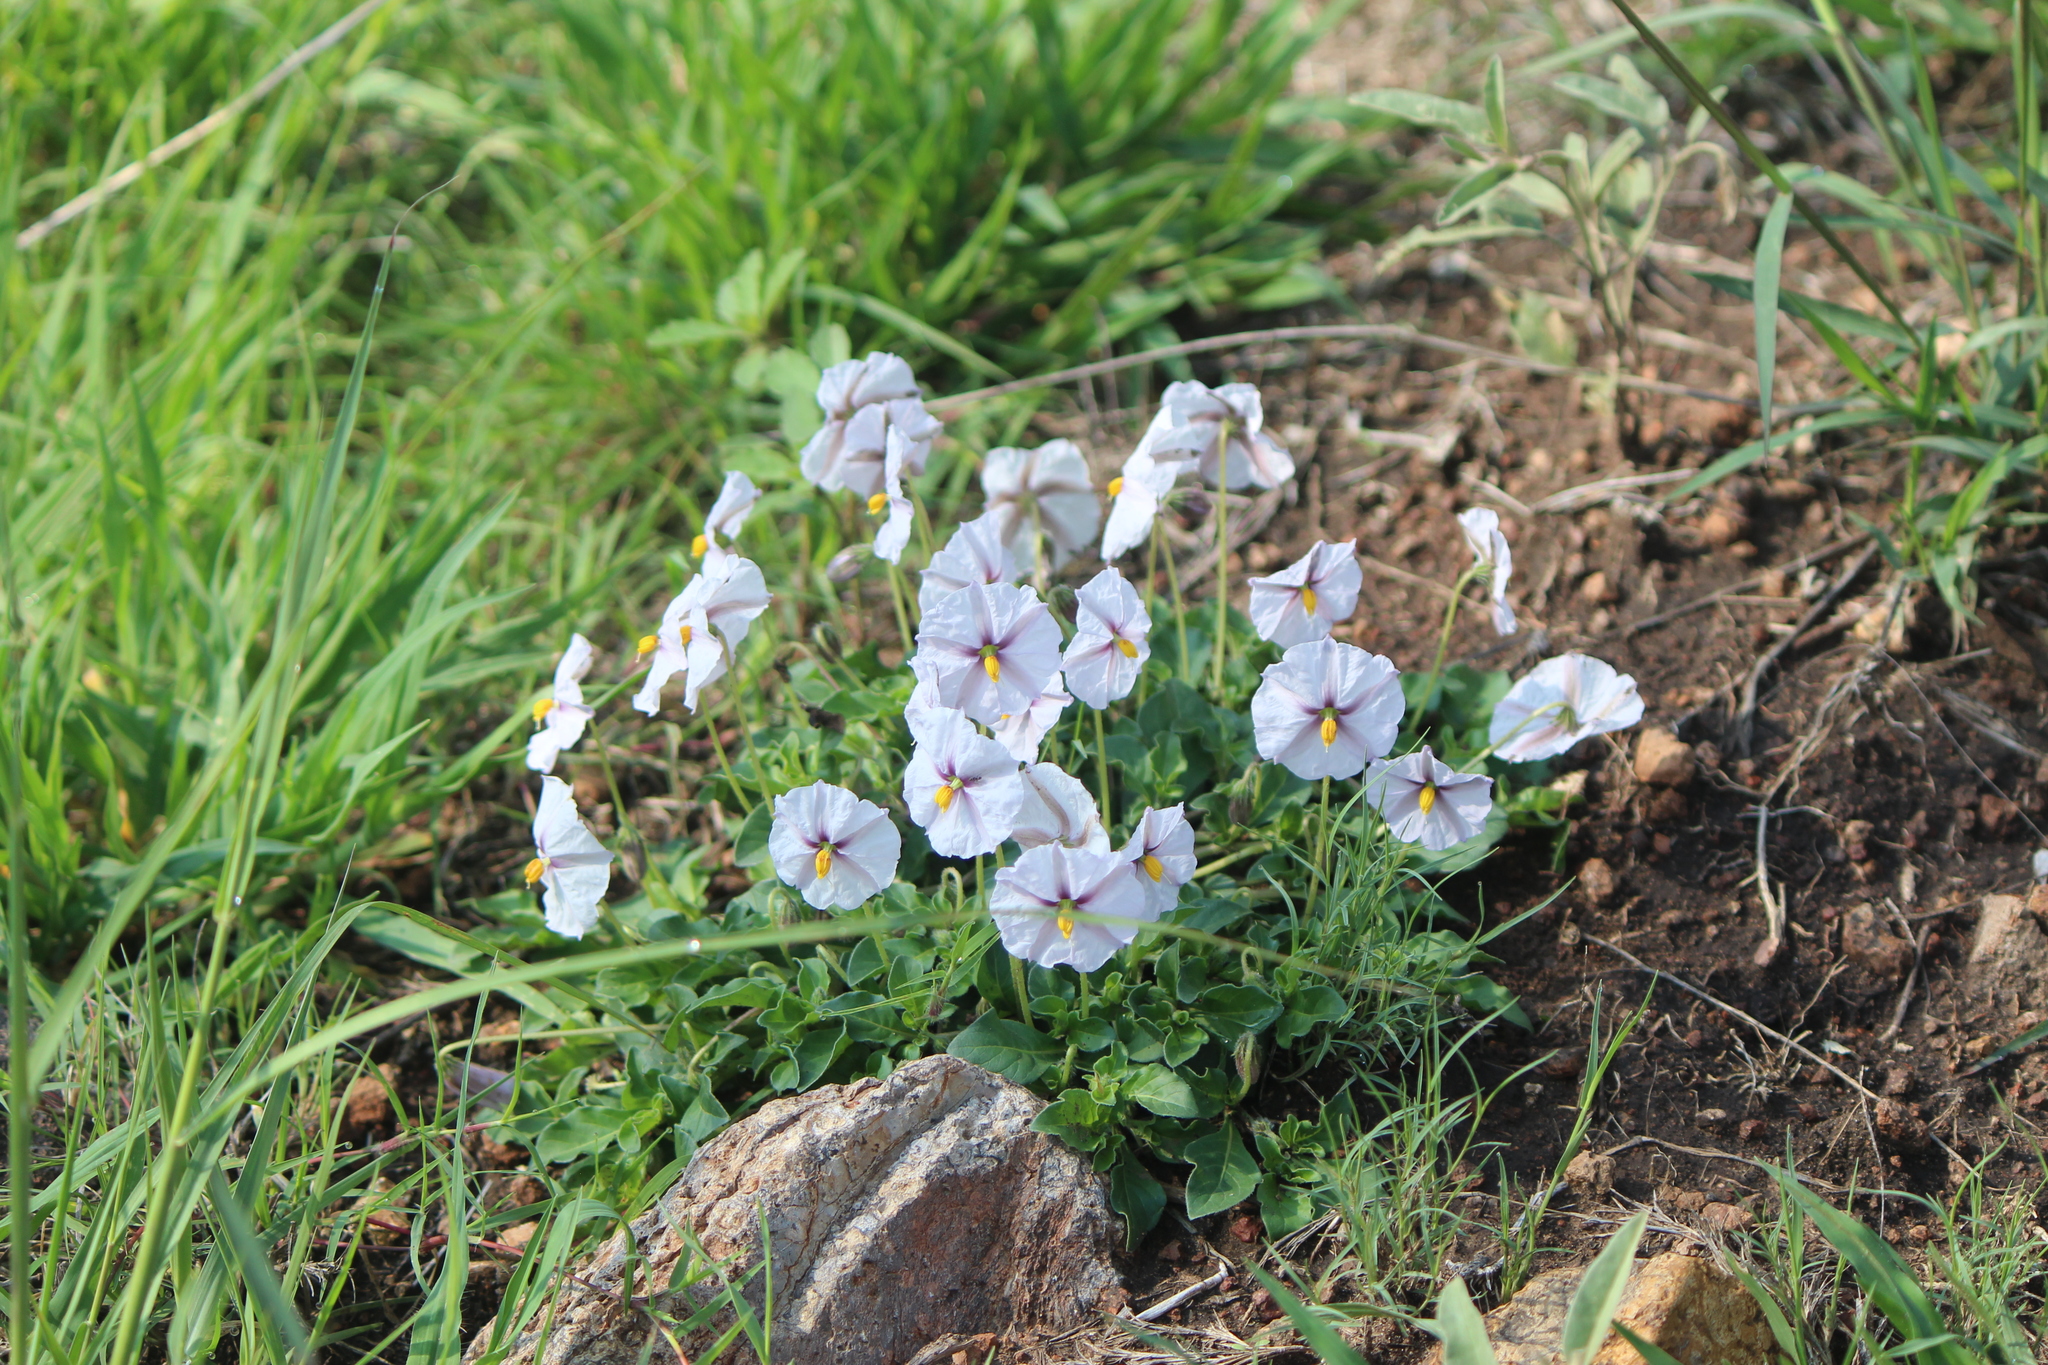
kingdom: Plantae
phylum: Tracheophyta
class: Magnoliopsida
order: Solanales
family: Solanaceae
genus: Lycianthes
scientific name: Lycianthes peduncularis
